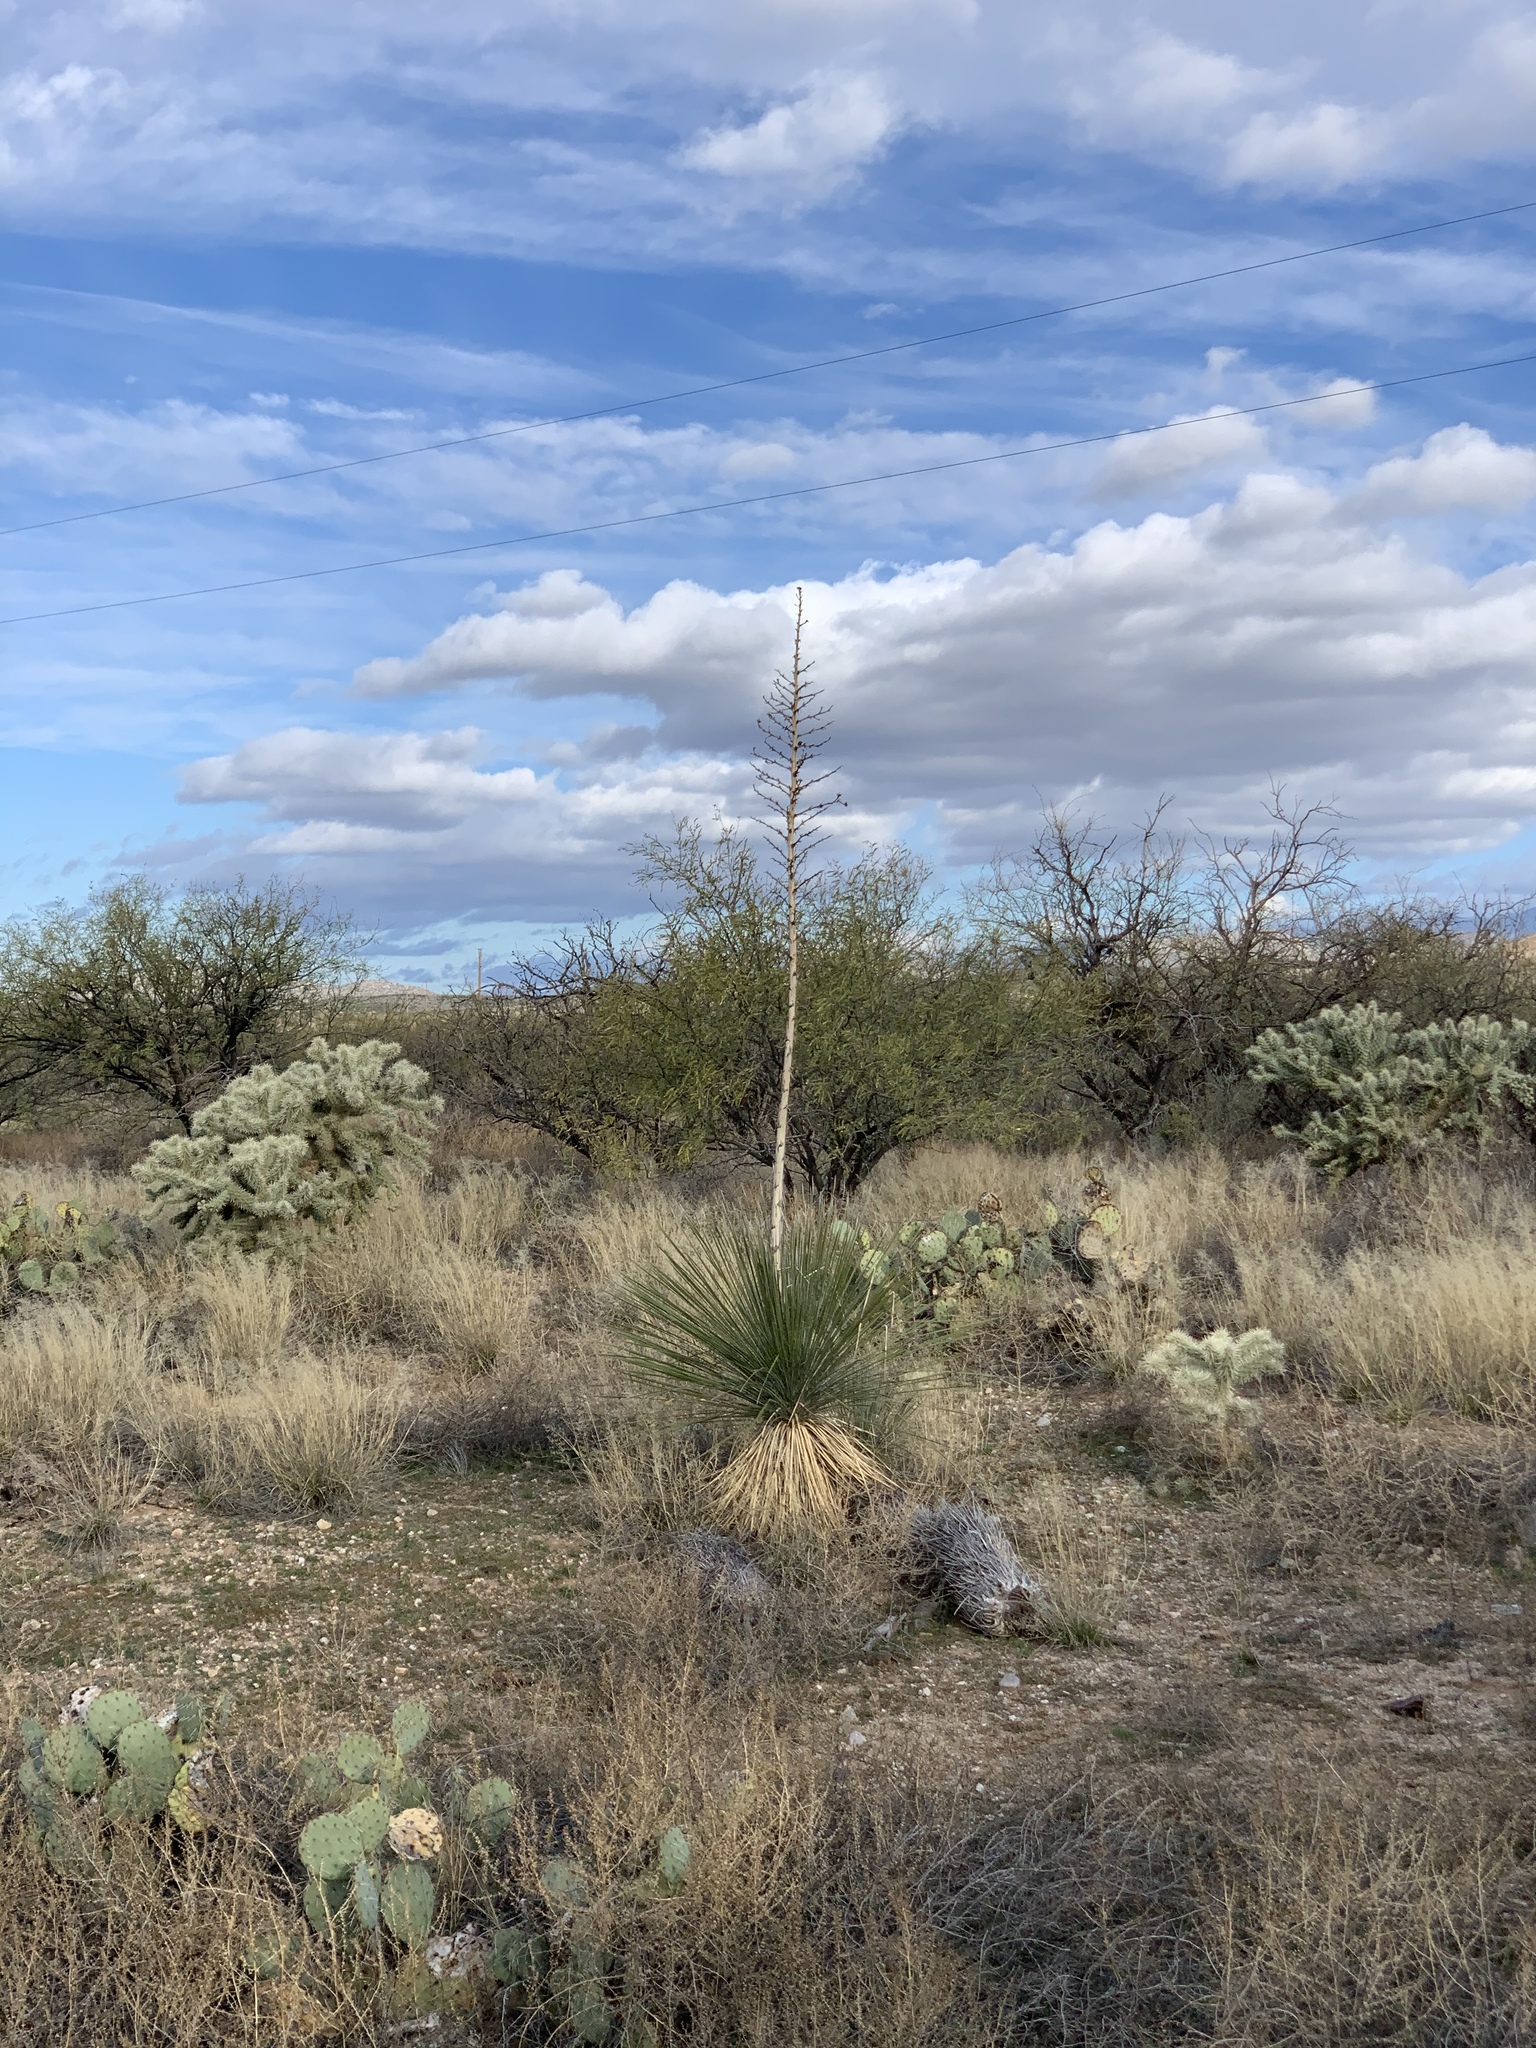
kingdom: Plantae
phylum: Tracheophyta
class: Liliopsida
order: Asparagales
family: Asparagaceae
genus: Yucca
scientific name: Yucca elata
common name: Palmella
